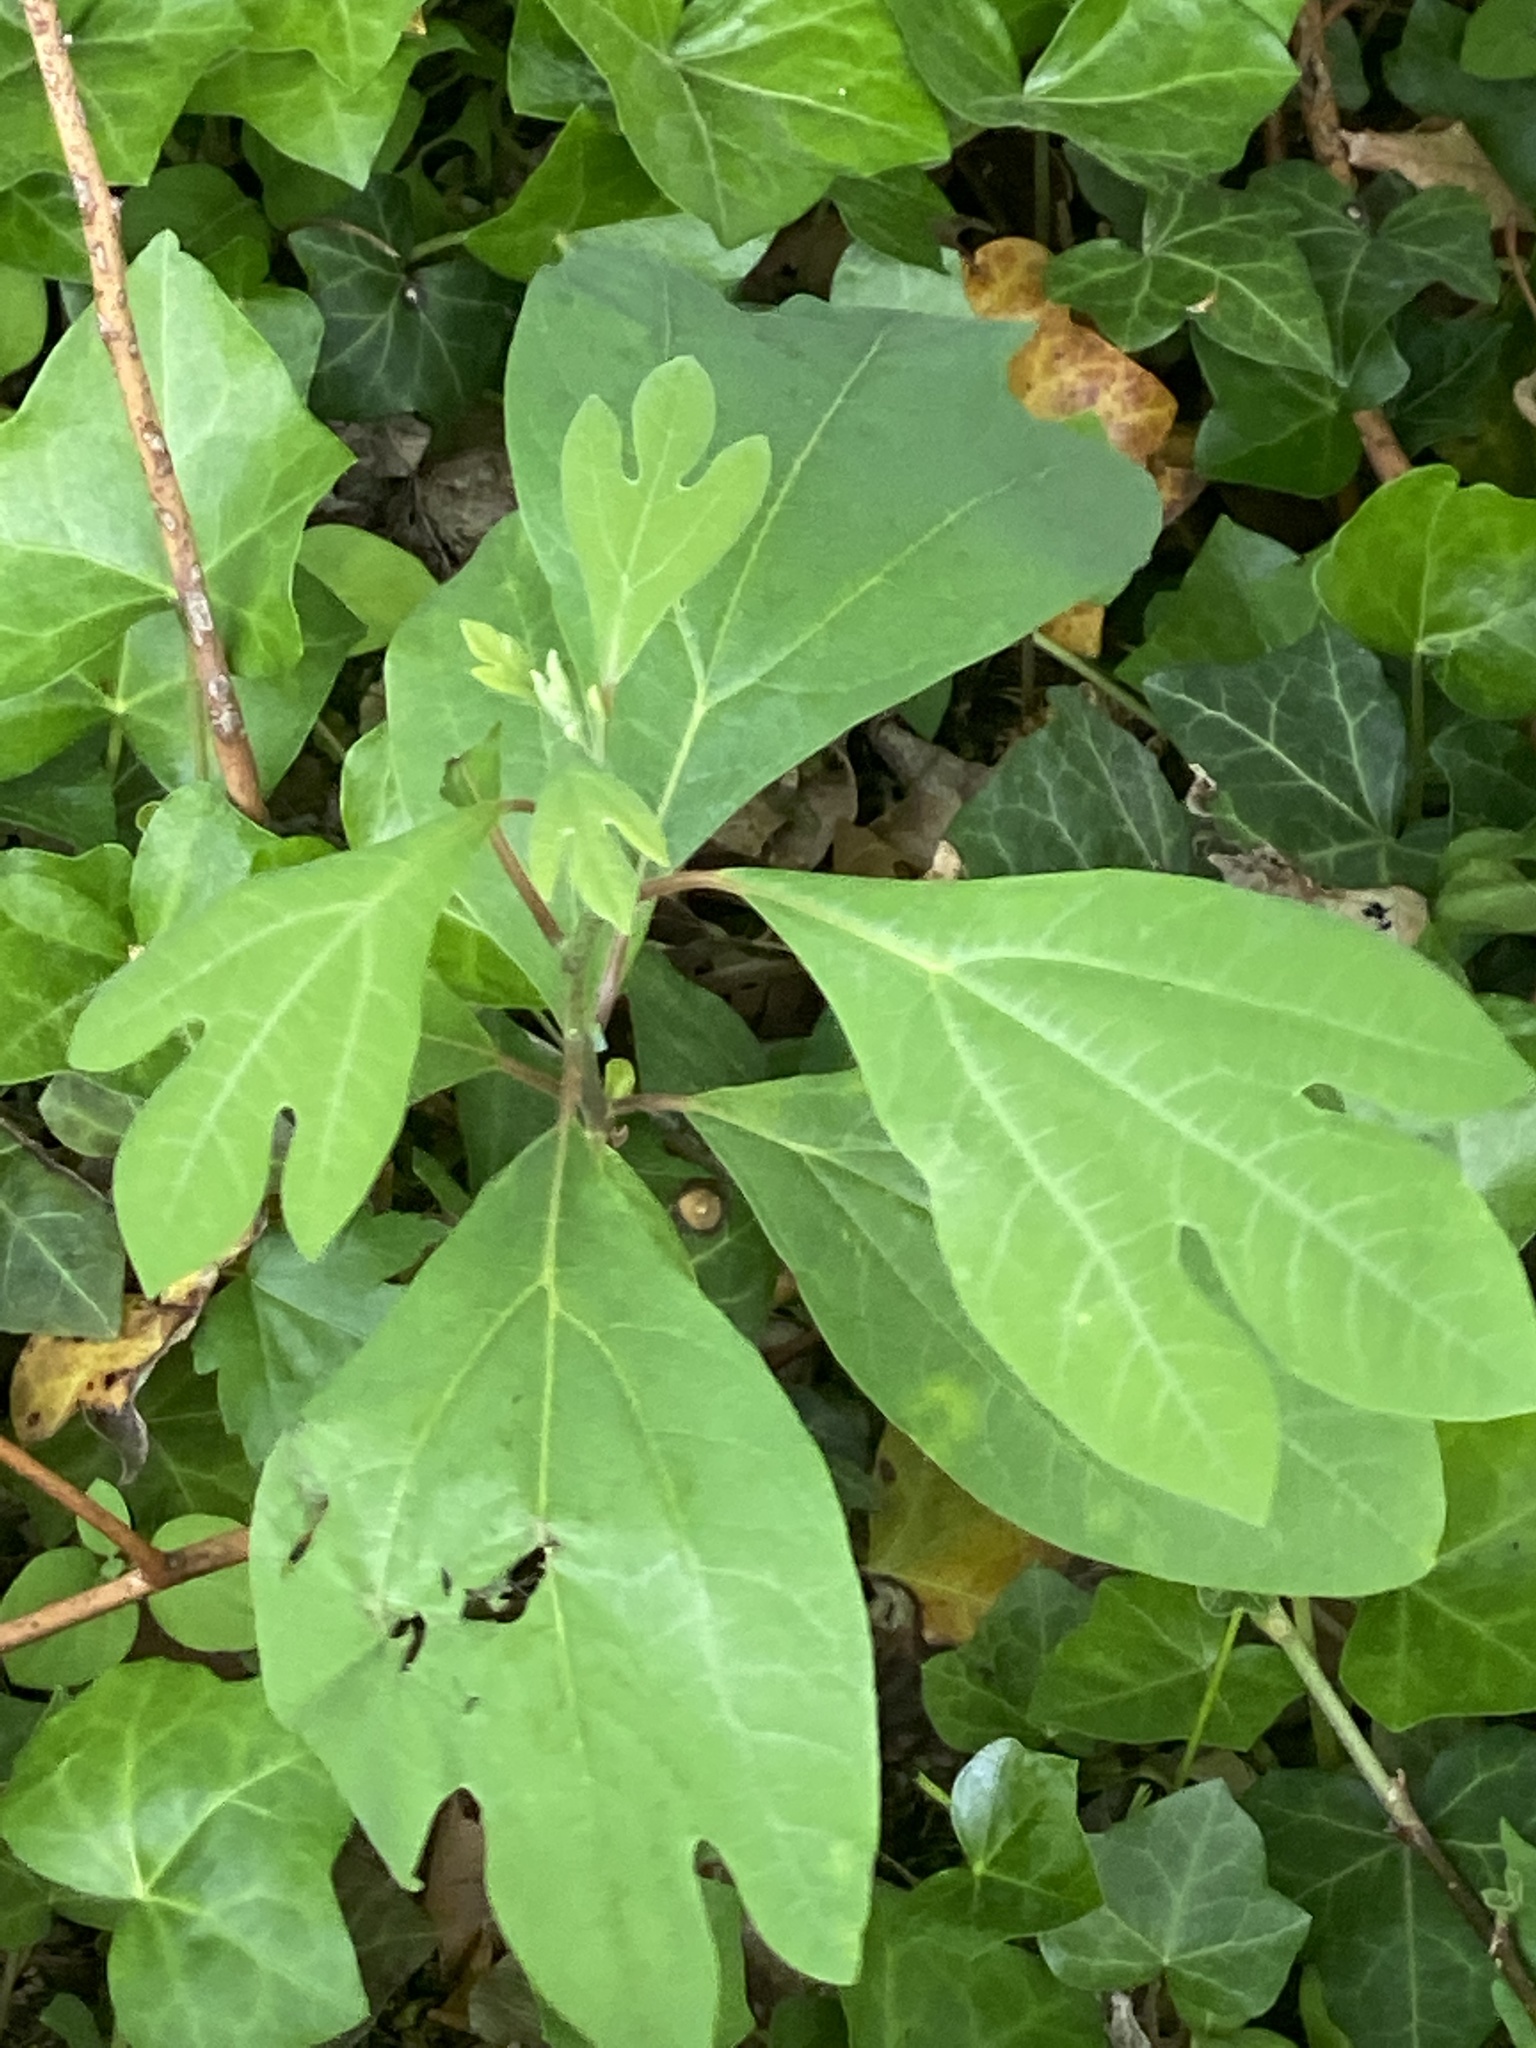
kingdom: Plantae
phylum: Tracheophyta
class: Magnoliopsida
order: Laurales
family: Lauraceae
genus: Sassafras
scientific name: Sassafras albidum
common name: Sassafras
